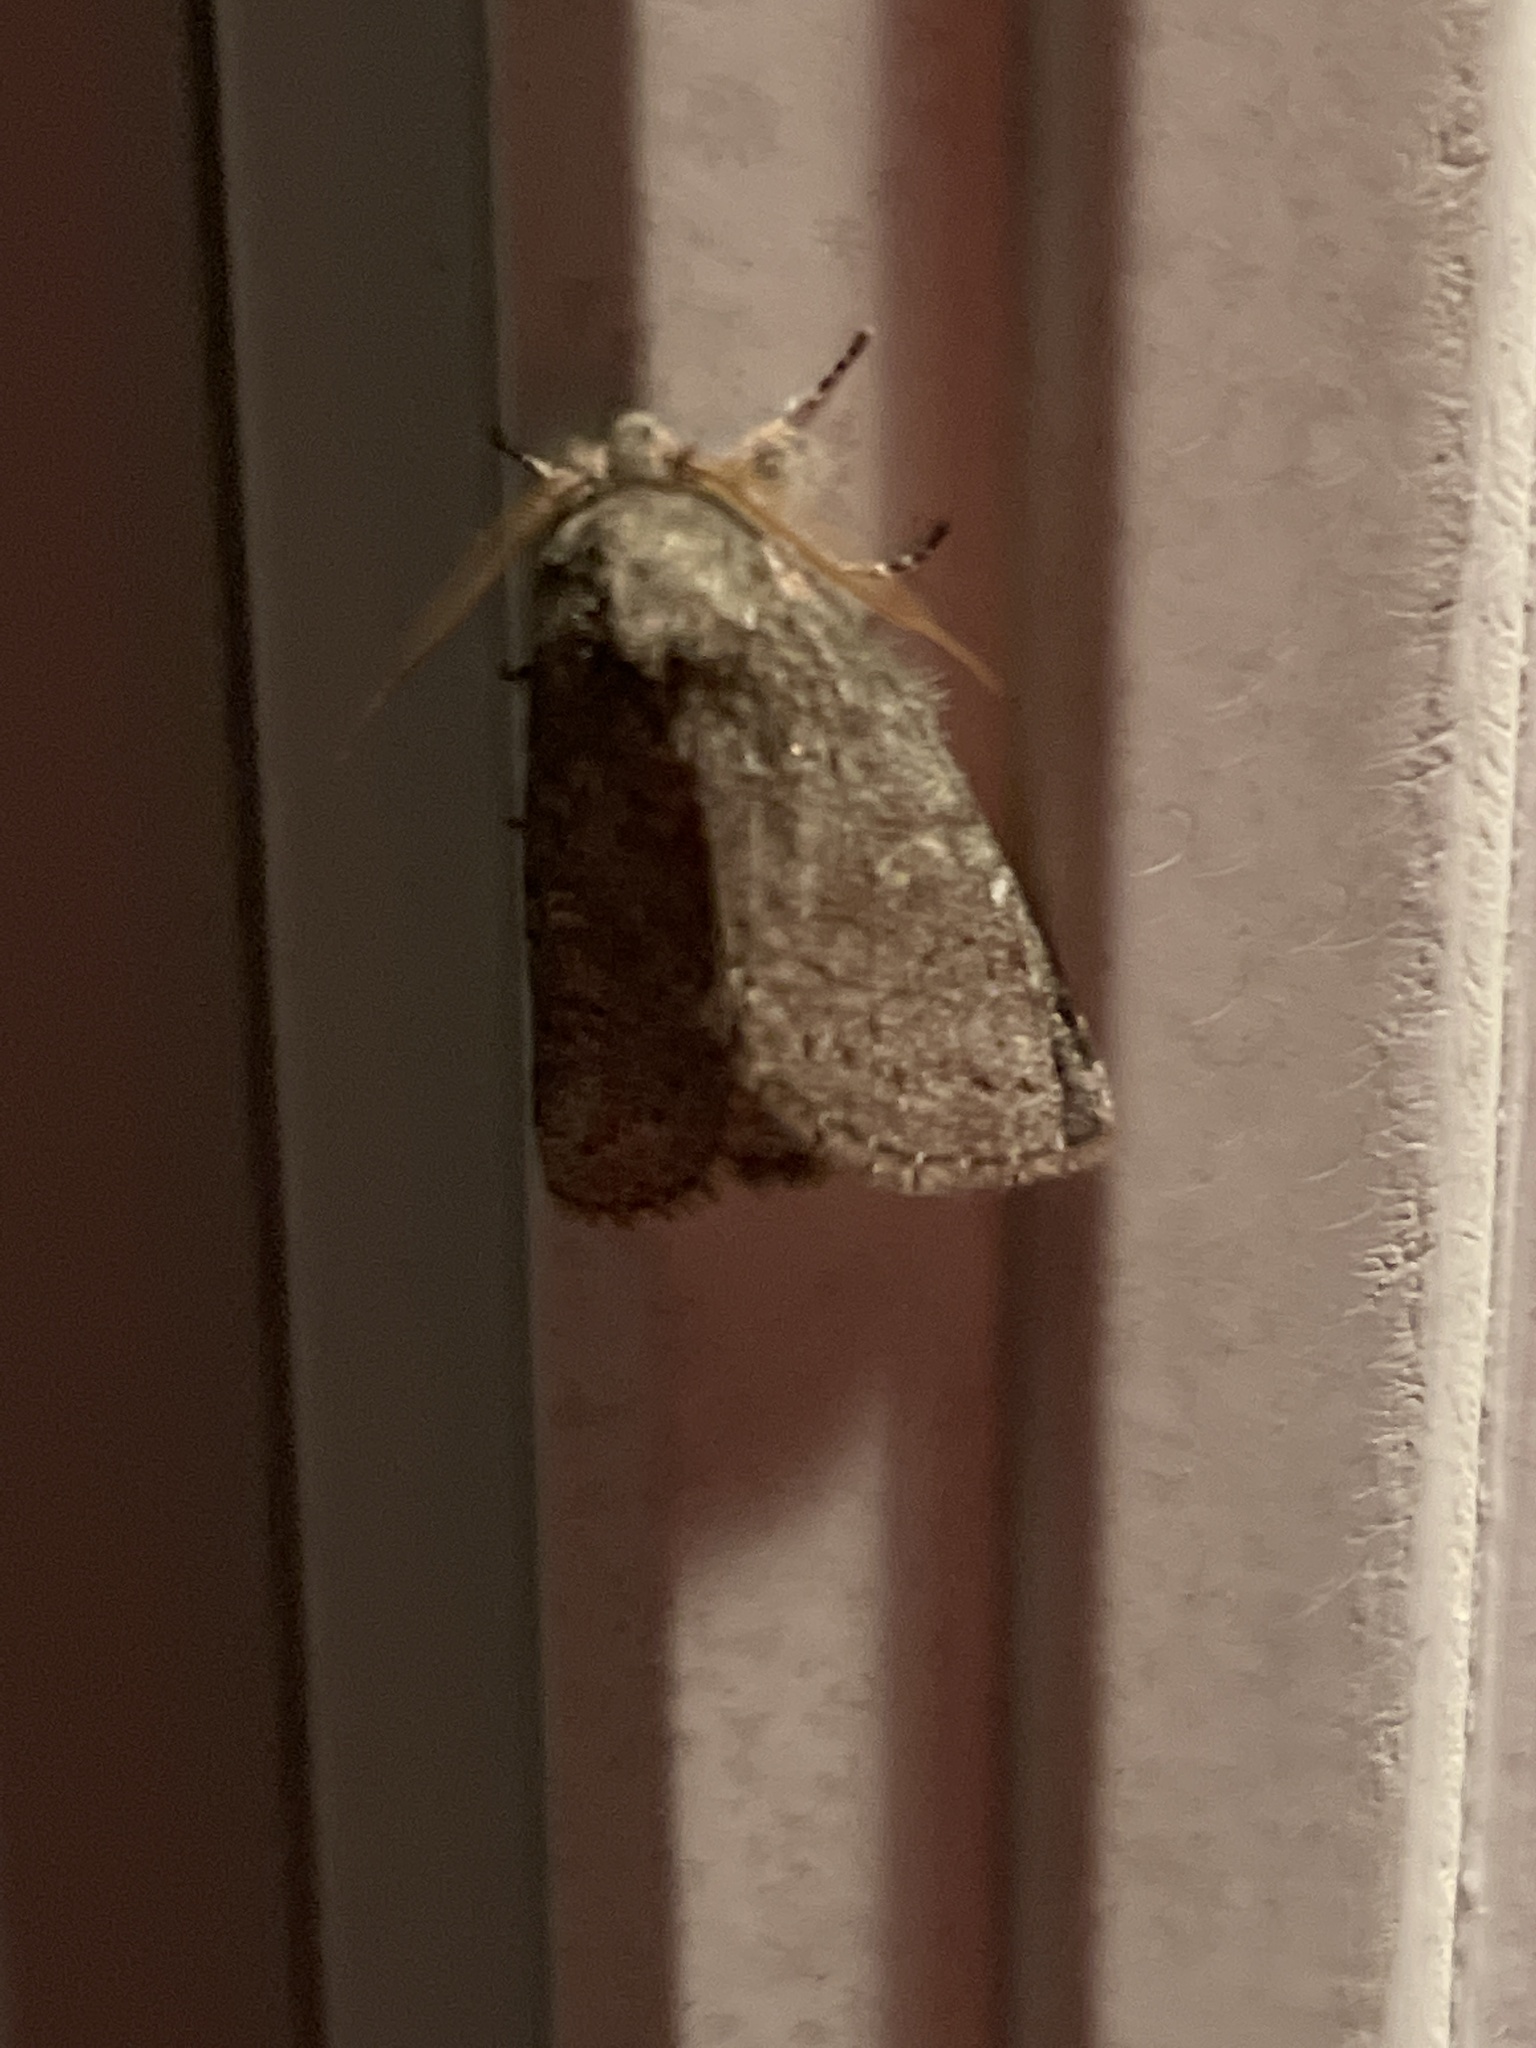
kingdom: Animalia
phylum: Arthropoda
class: Insecta
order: Lepidoptera
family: Notodontidae
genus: Disphragis
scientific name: Disphragis Cecrita guttivitta
